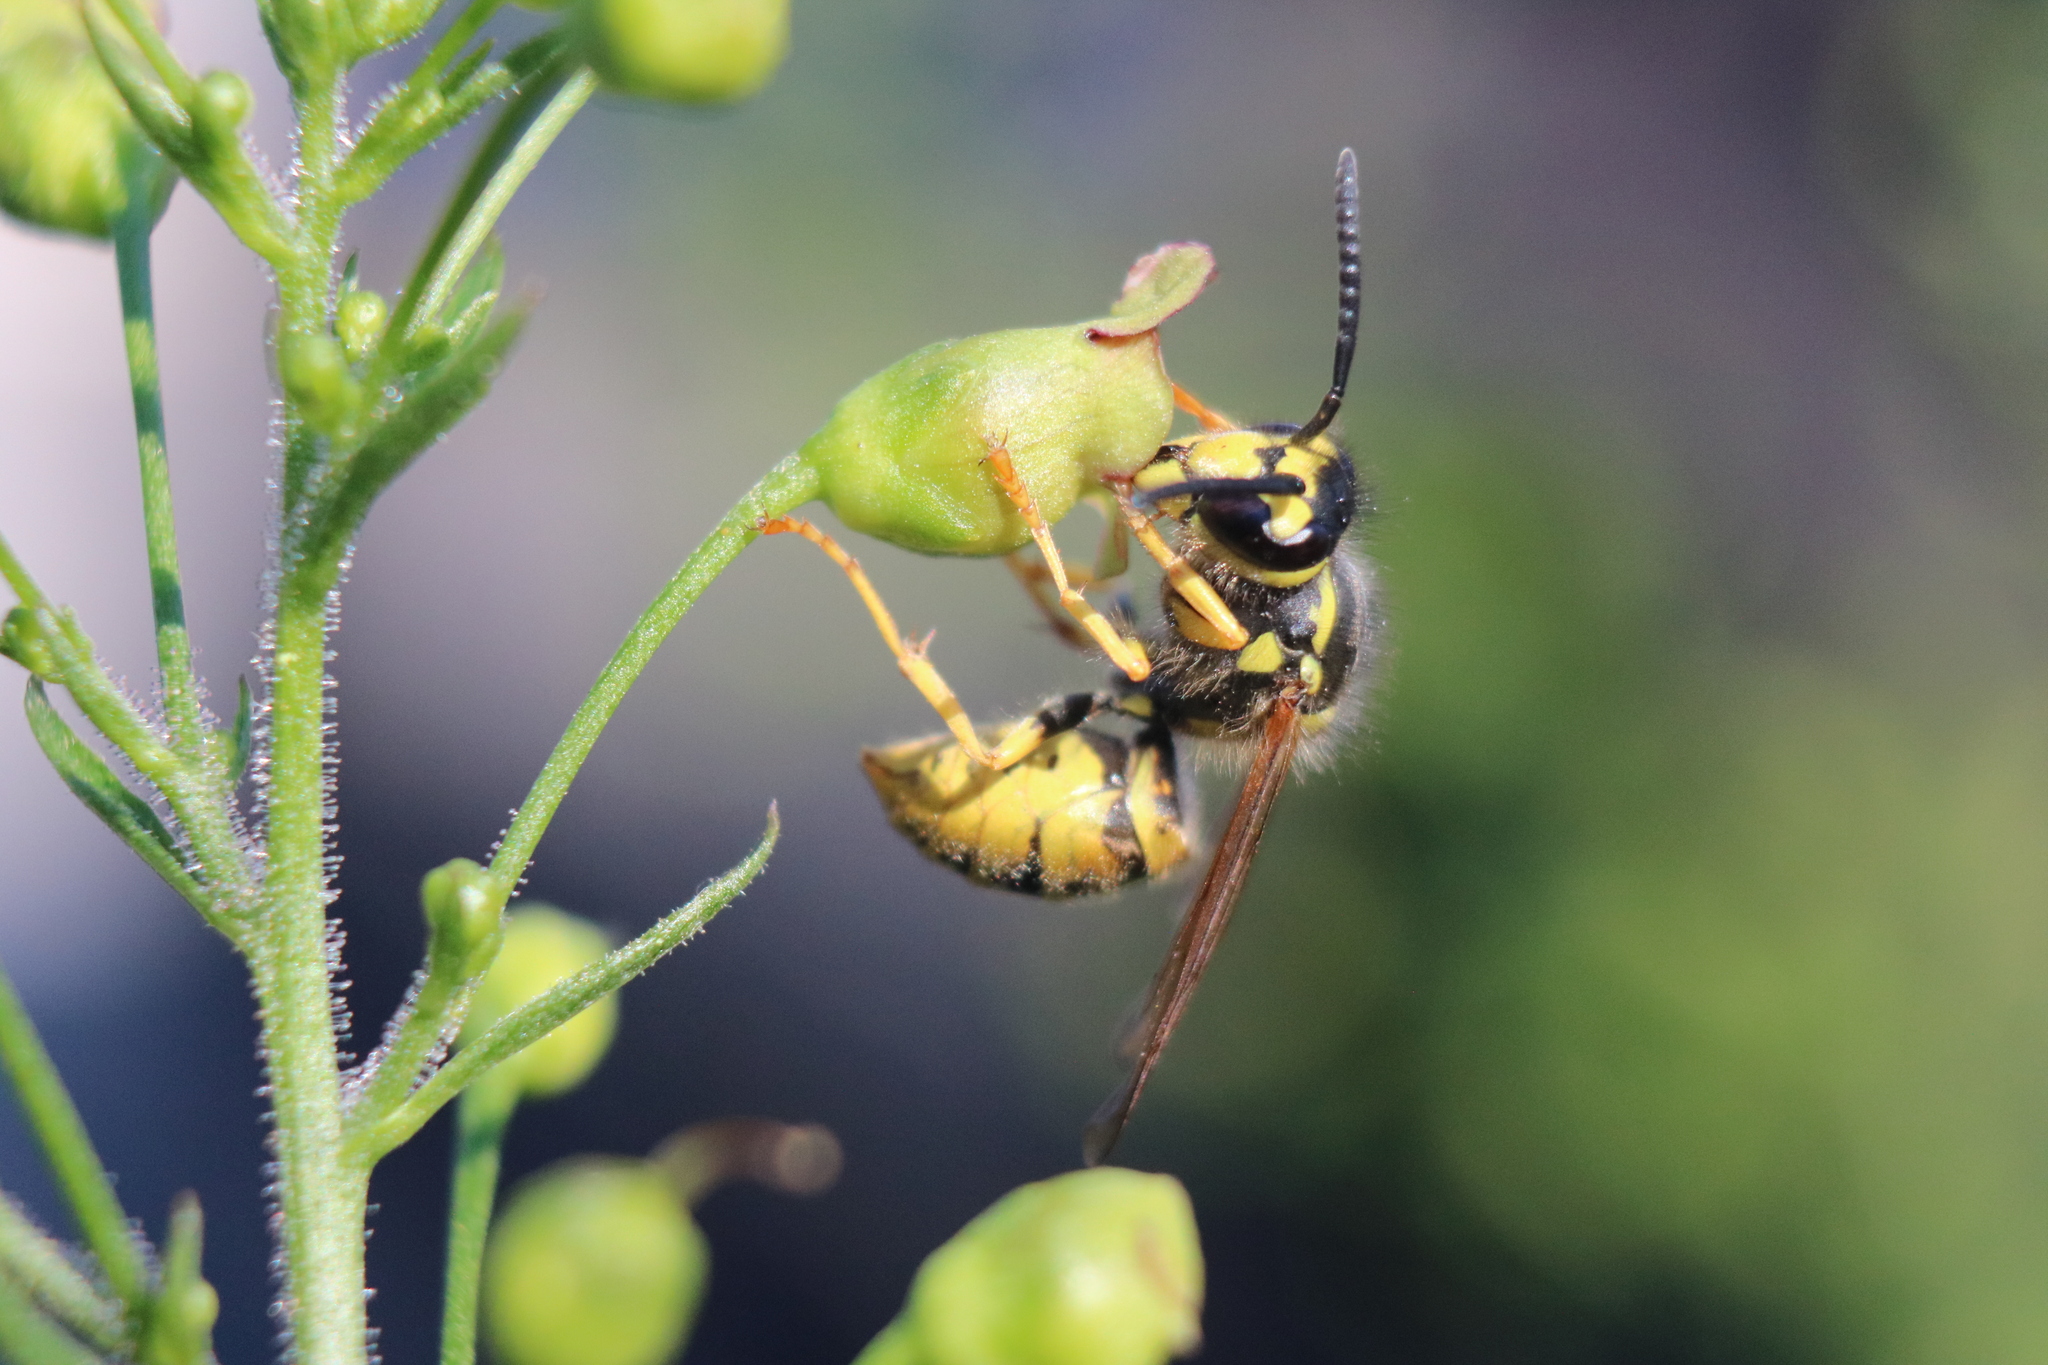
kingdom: Animalia
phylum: Arthropoda
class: Insecta
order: Hymenoptera
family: Vespidae
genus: Vespula
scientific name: Vespula
